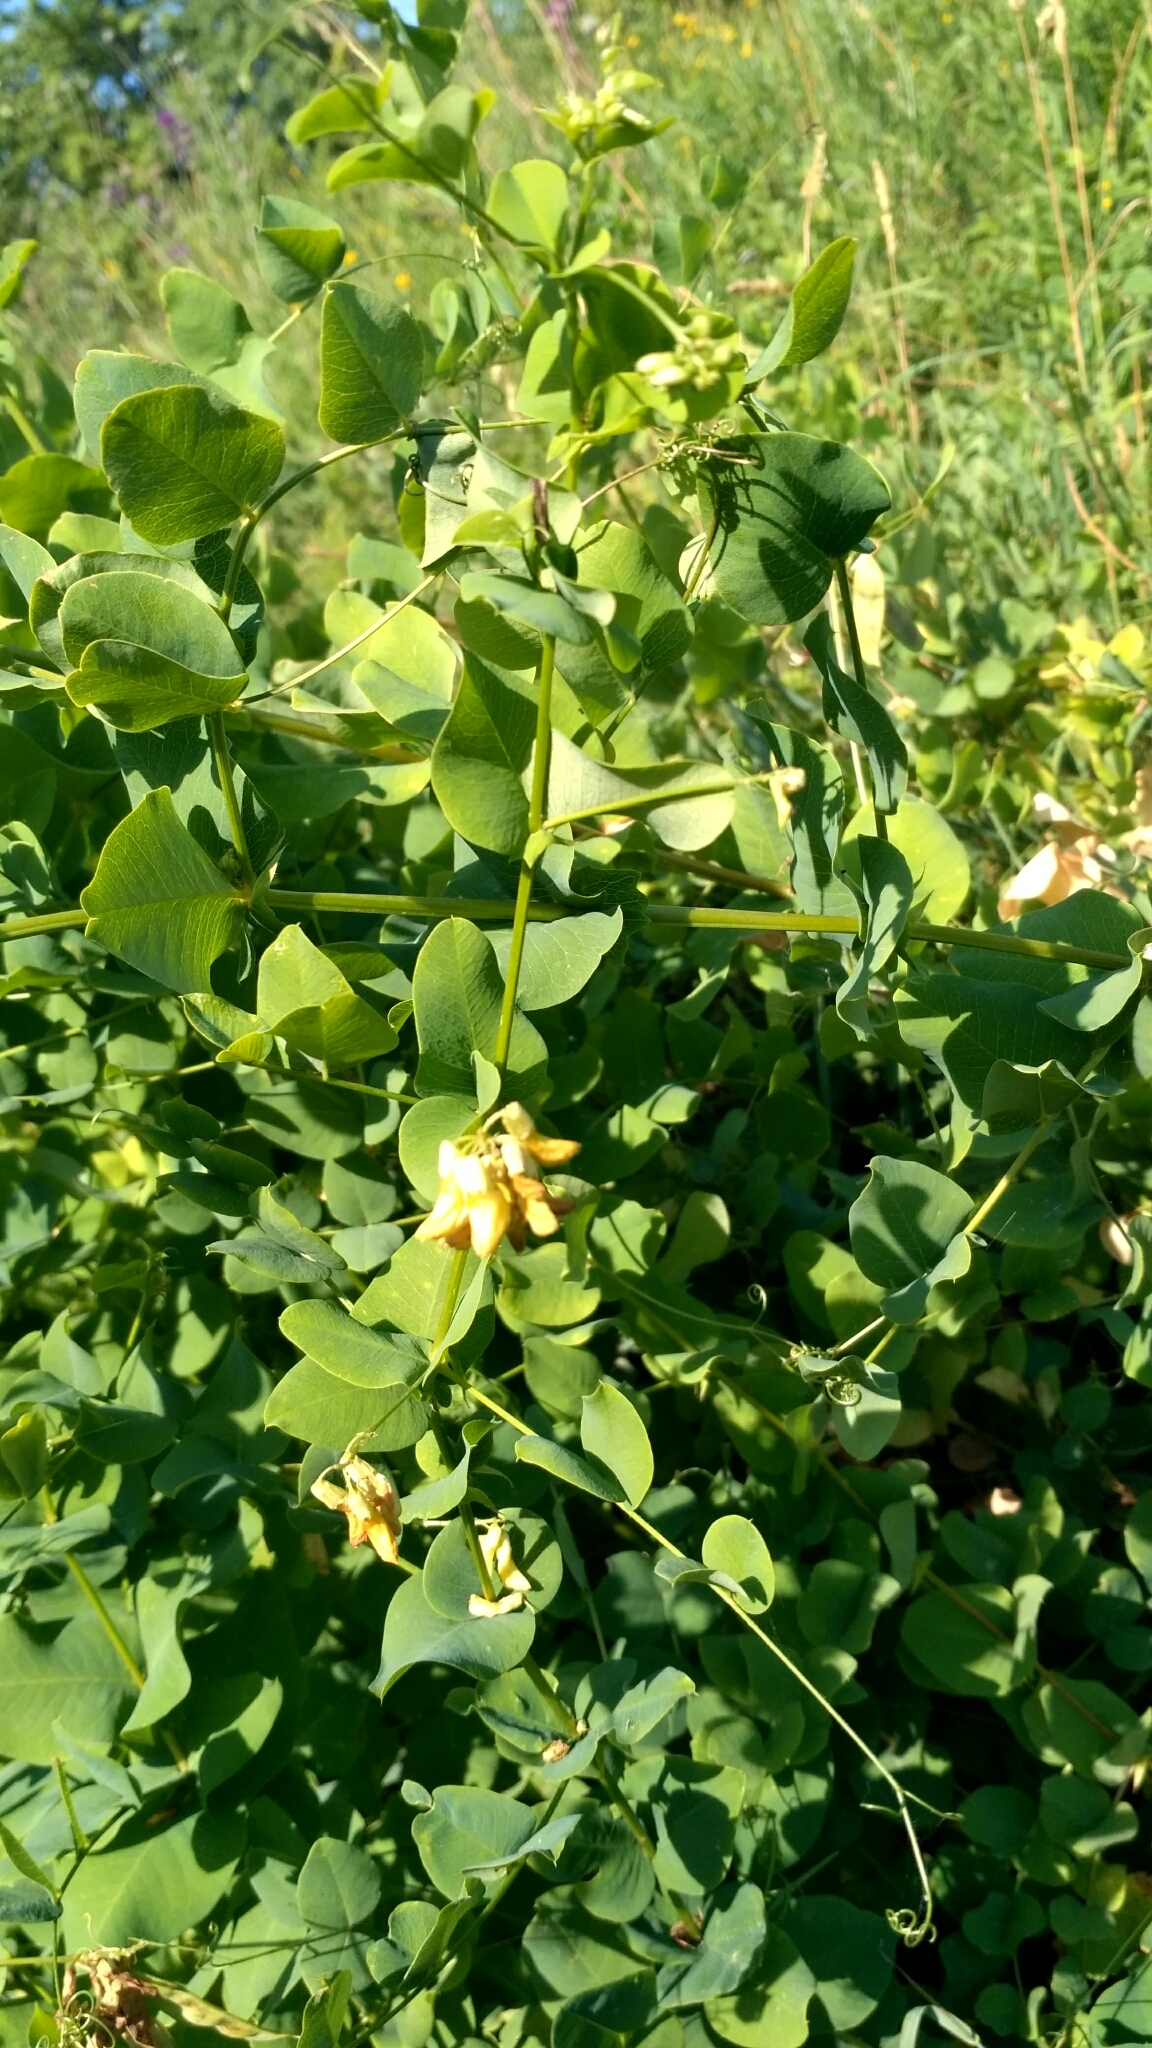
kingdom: Plantae
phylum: Tracheophyta
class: Magnoliopsida
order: Fabales
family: Fabaceae
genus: Vicia
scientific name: Vicia pisiformis
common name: Pale-flower vetch
